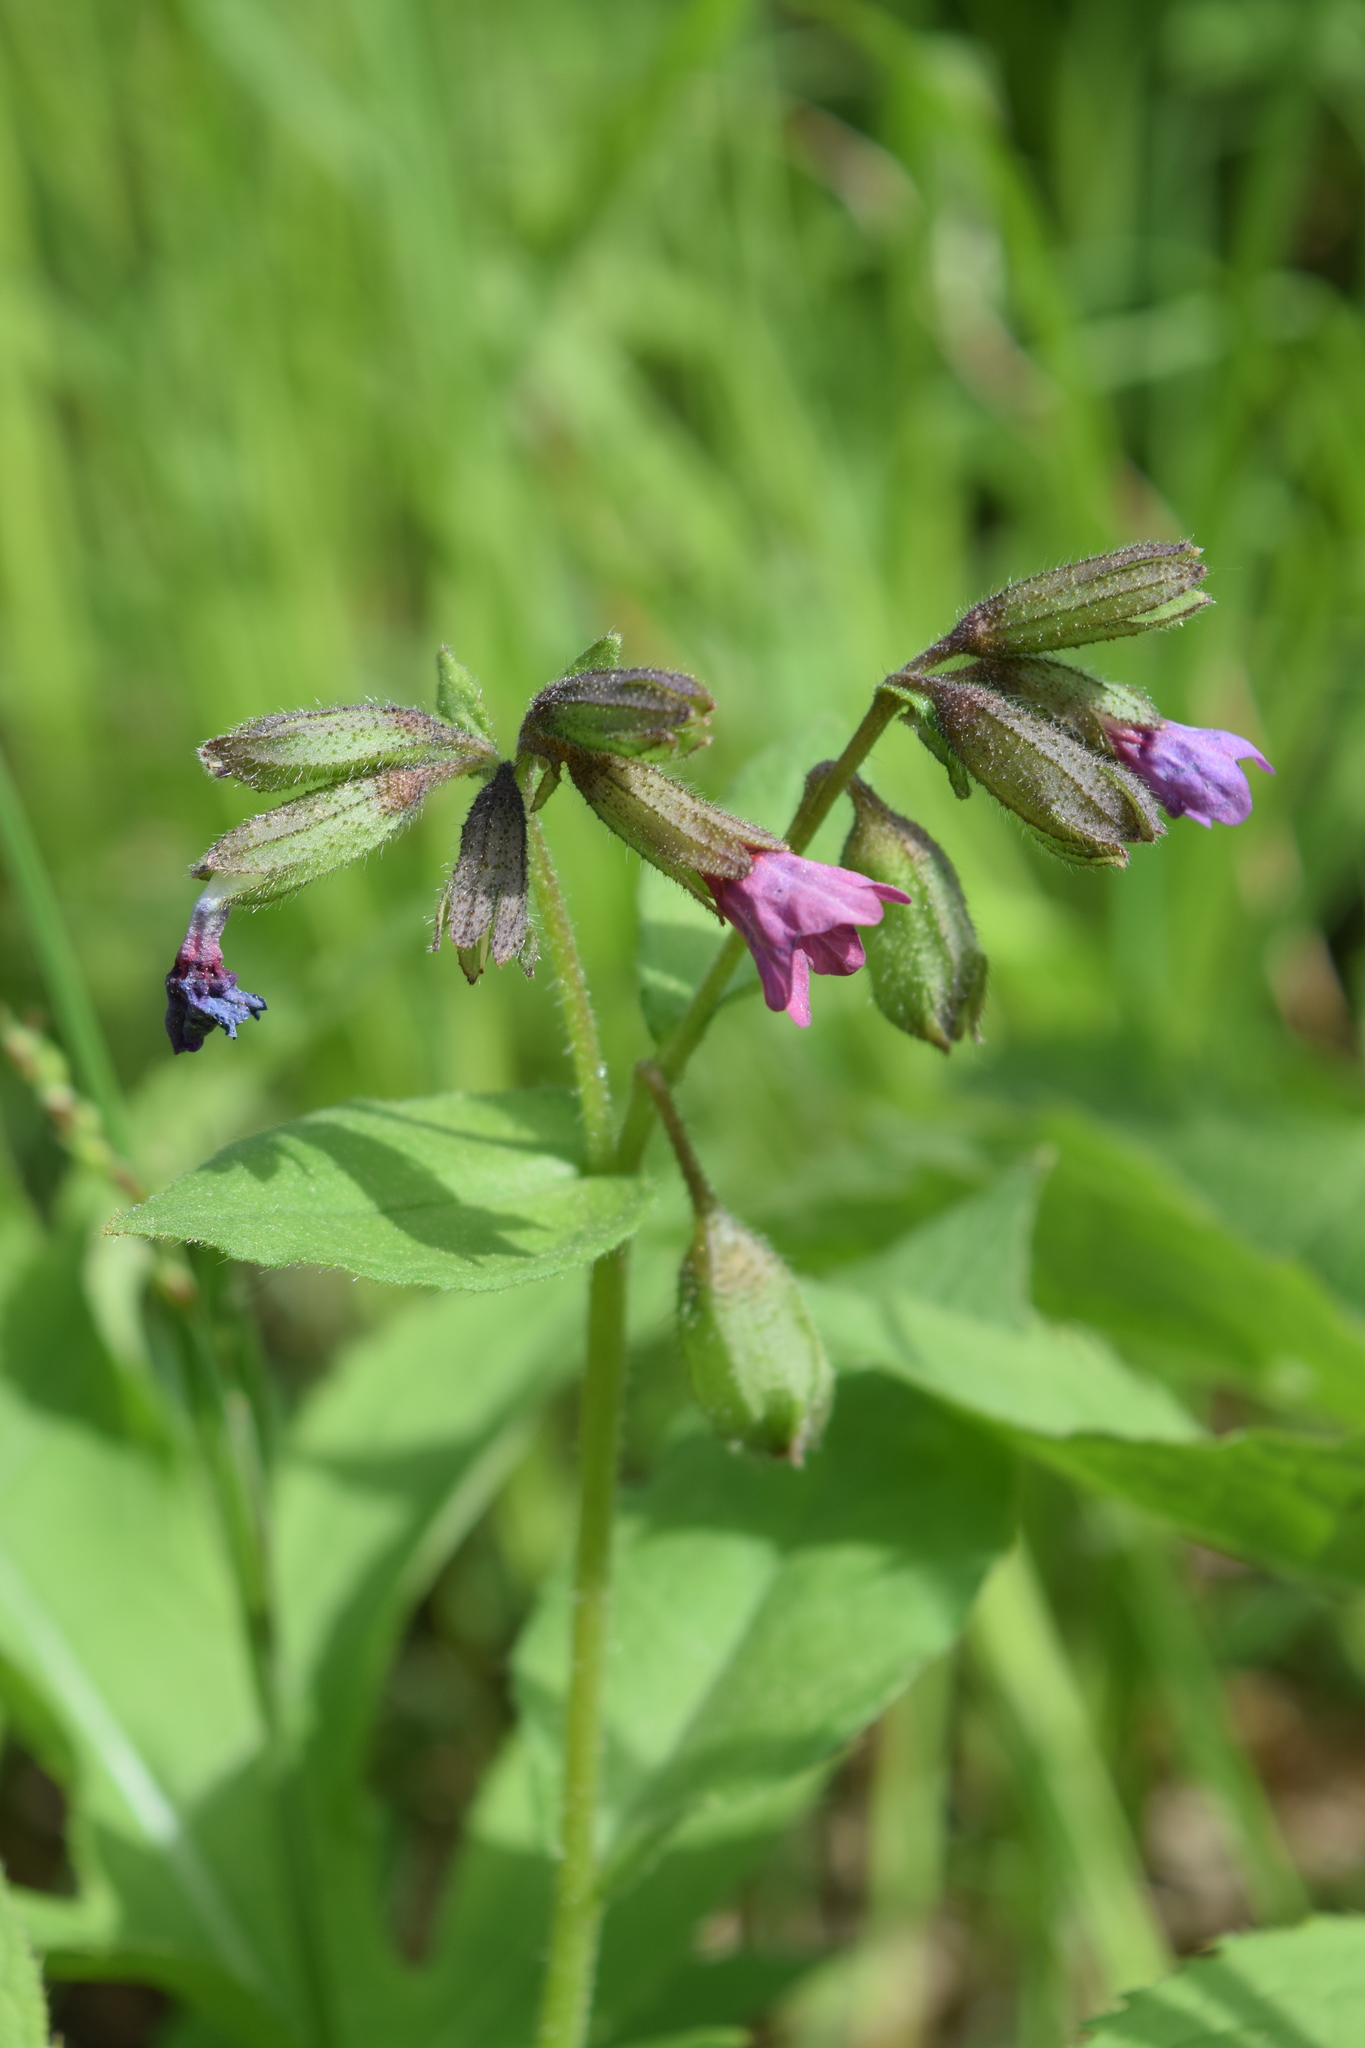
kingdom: Plantae
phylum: Tracheophyta
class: Magnoliopsida
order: Boraginales
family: Boraginaceae
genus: Pulmonaria
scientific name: Pulmonaria obscura
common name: Suffolk lungwort
